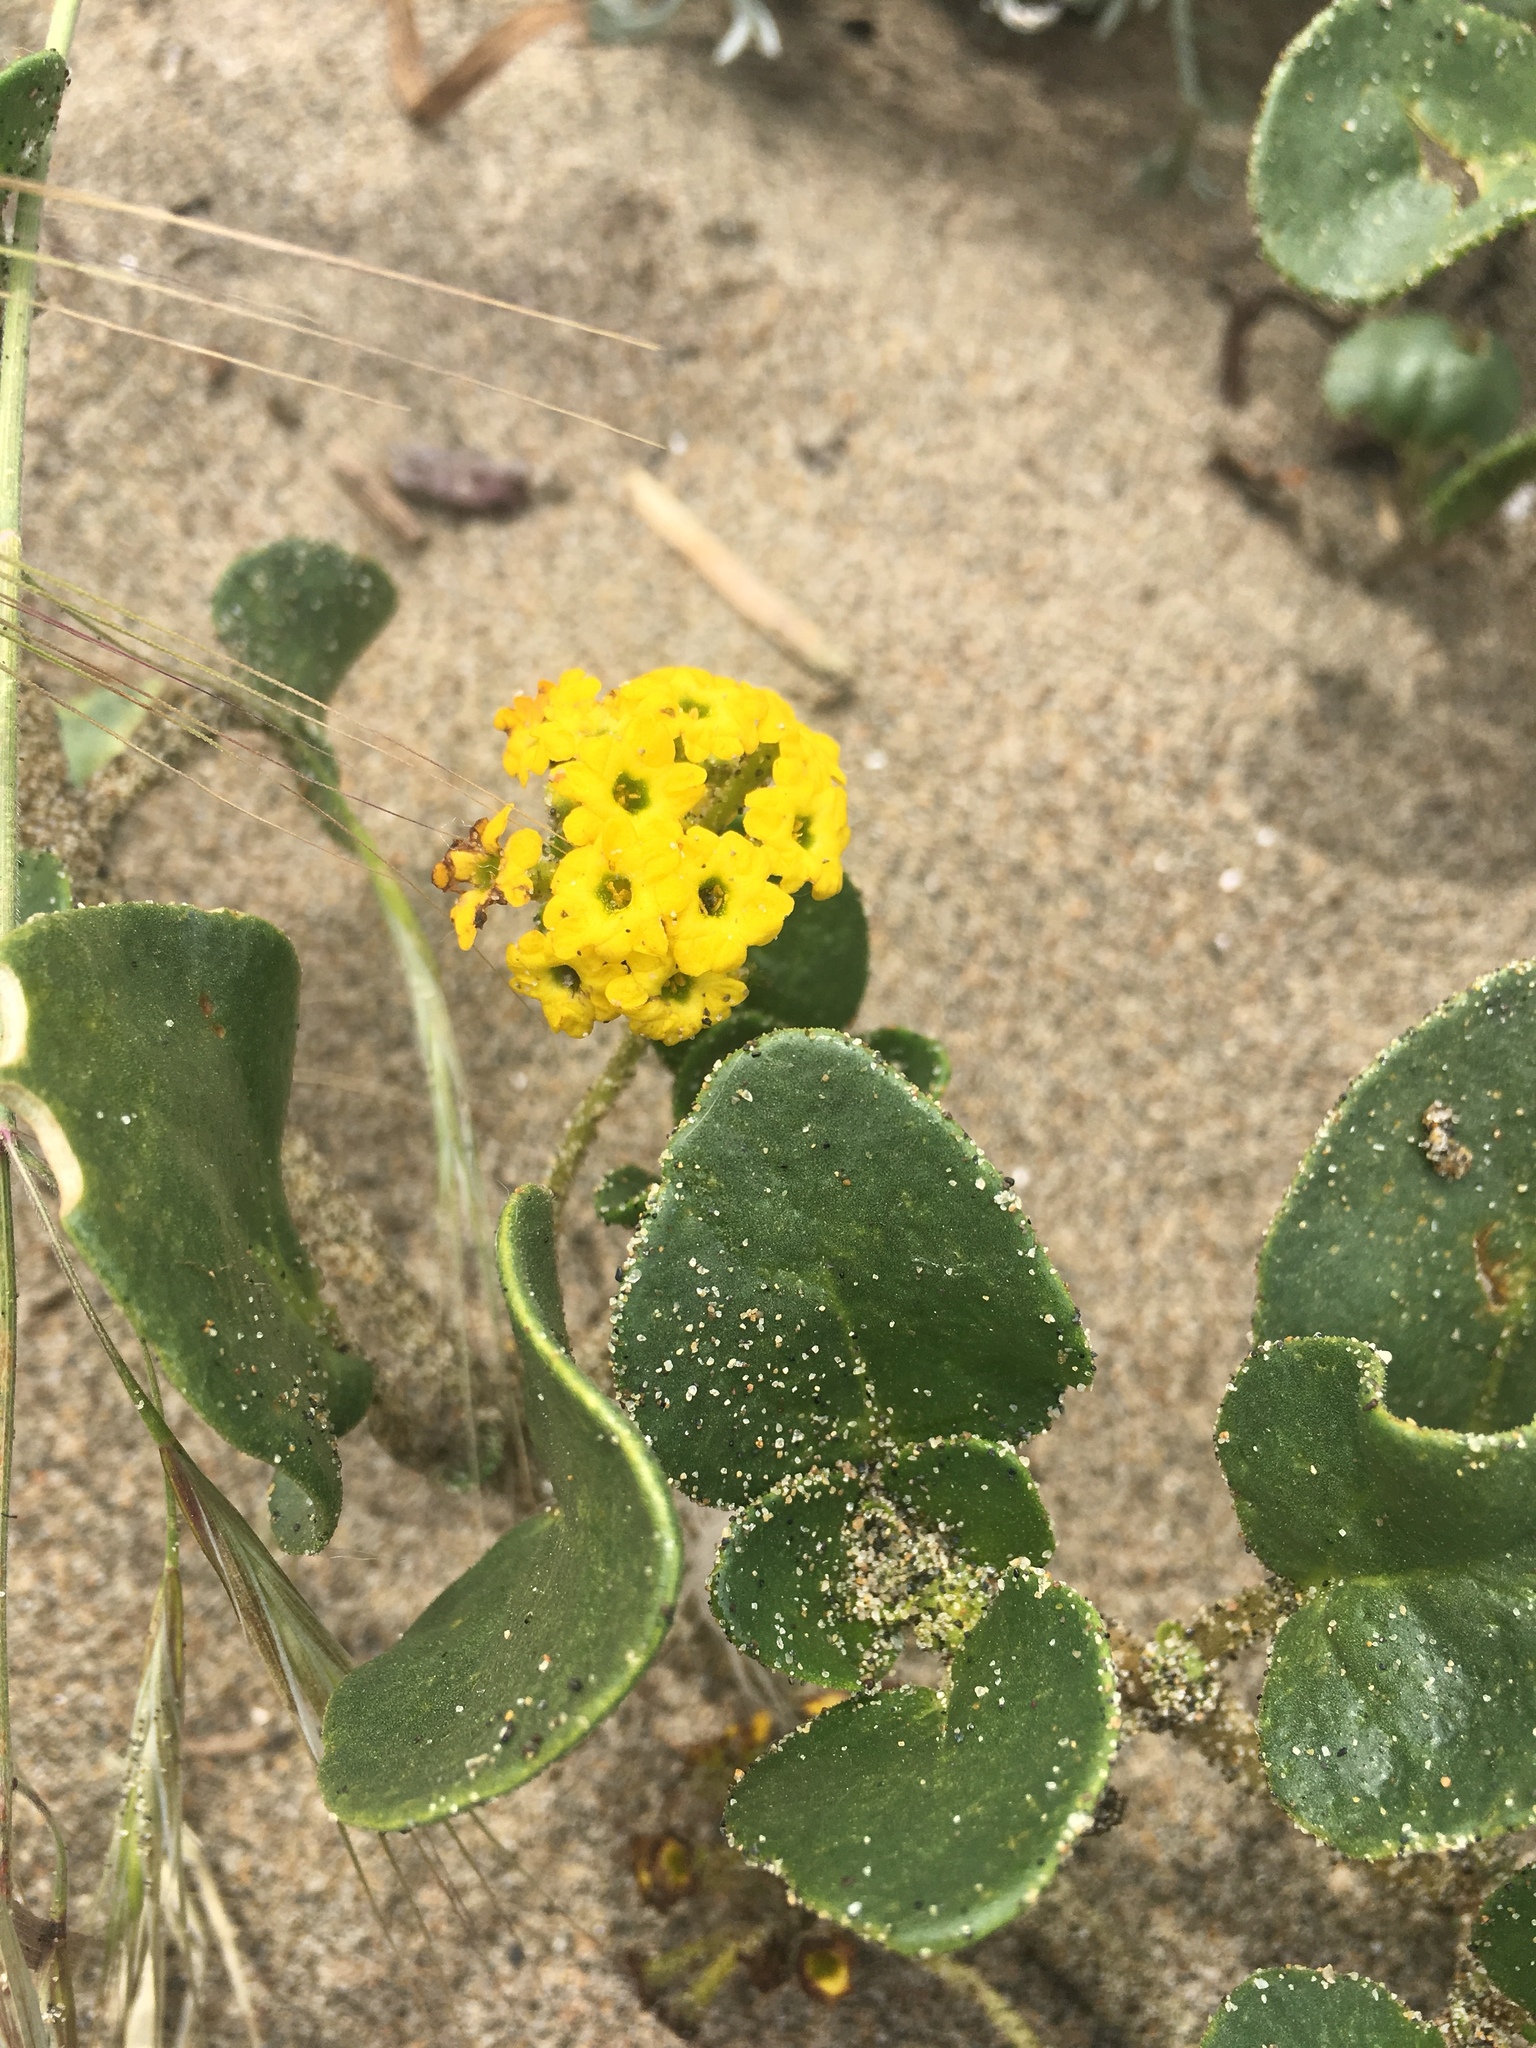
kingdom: Plantae
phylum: Tracheophyta
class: Magnoliopsida
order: Caryophyllales
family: Nyctaginaceae
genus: Abronia
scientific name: Abronia latifolia
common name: Yellow sand-verbena
